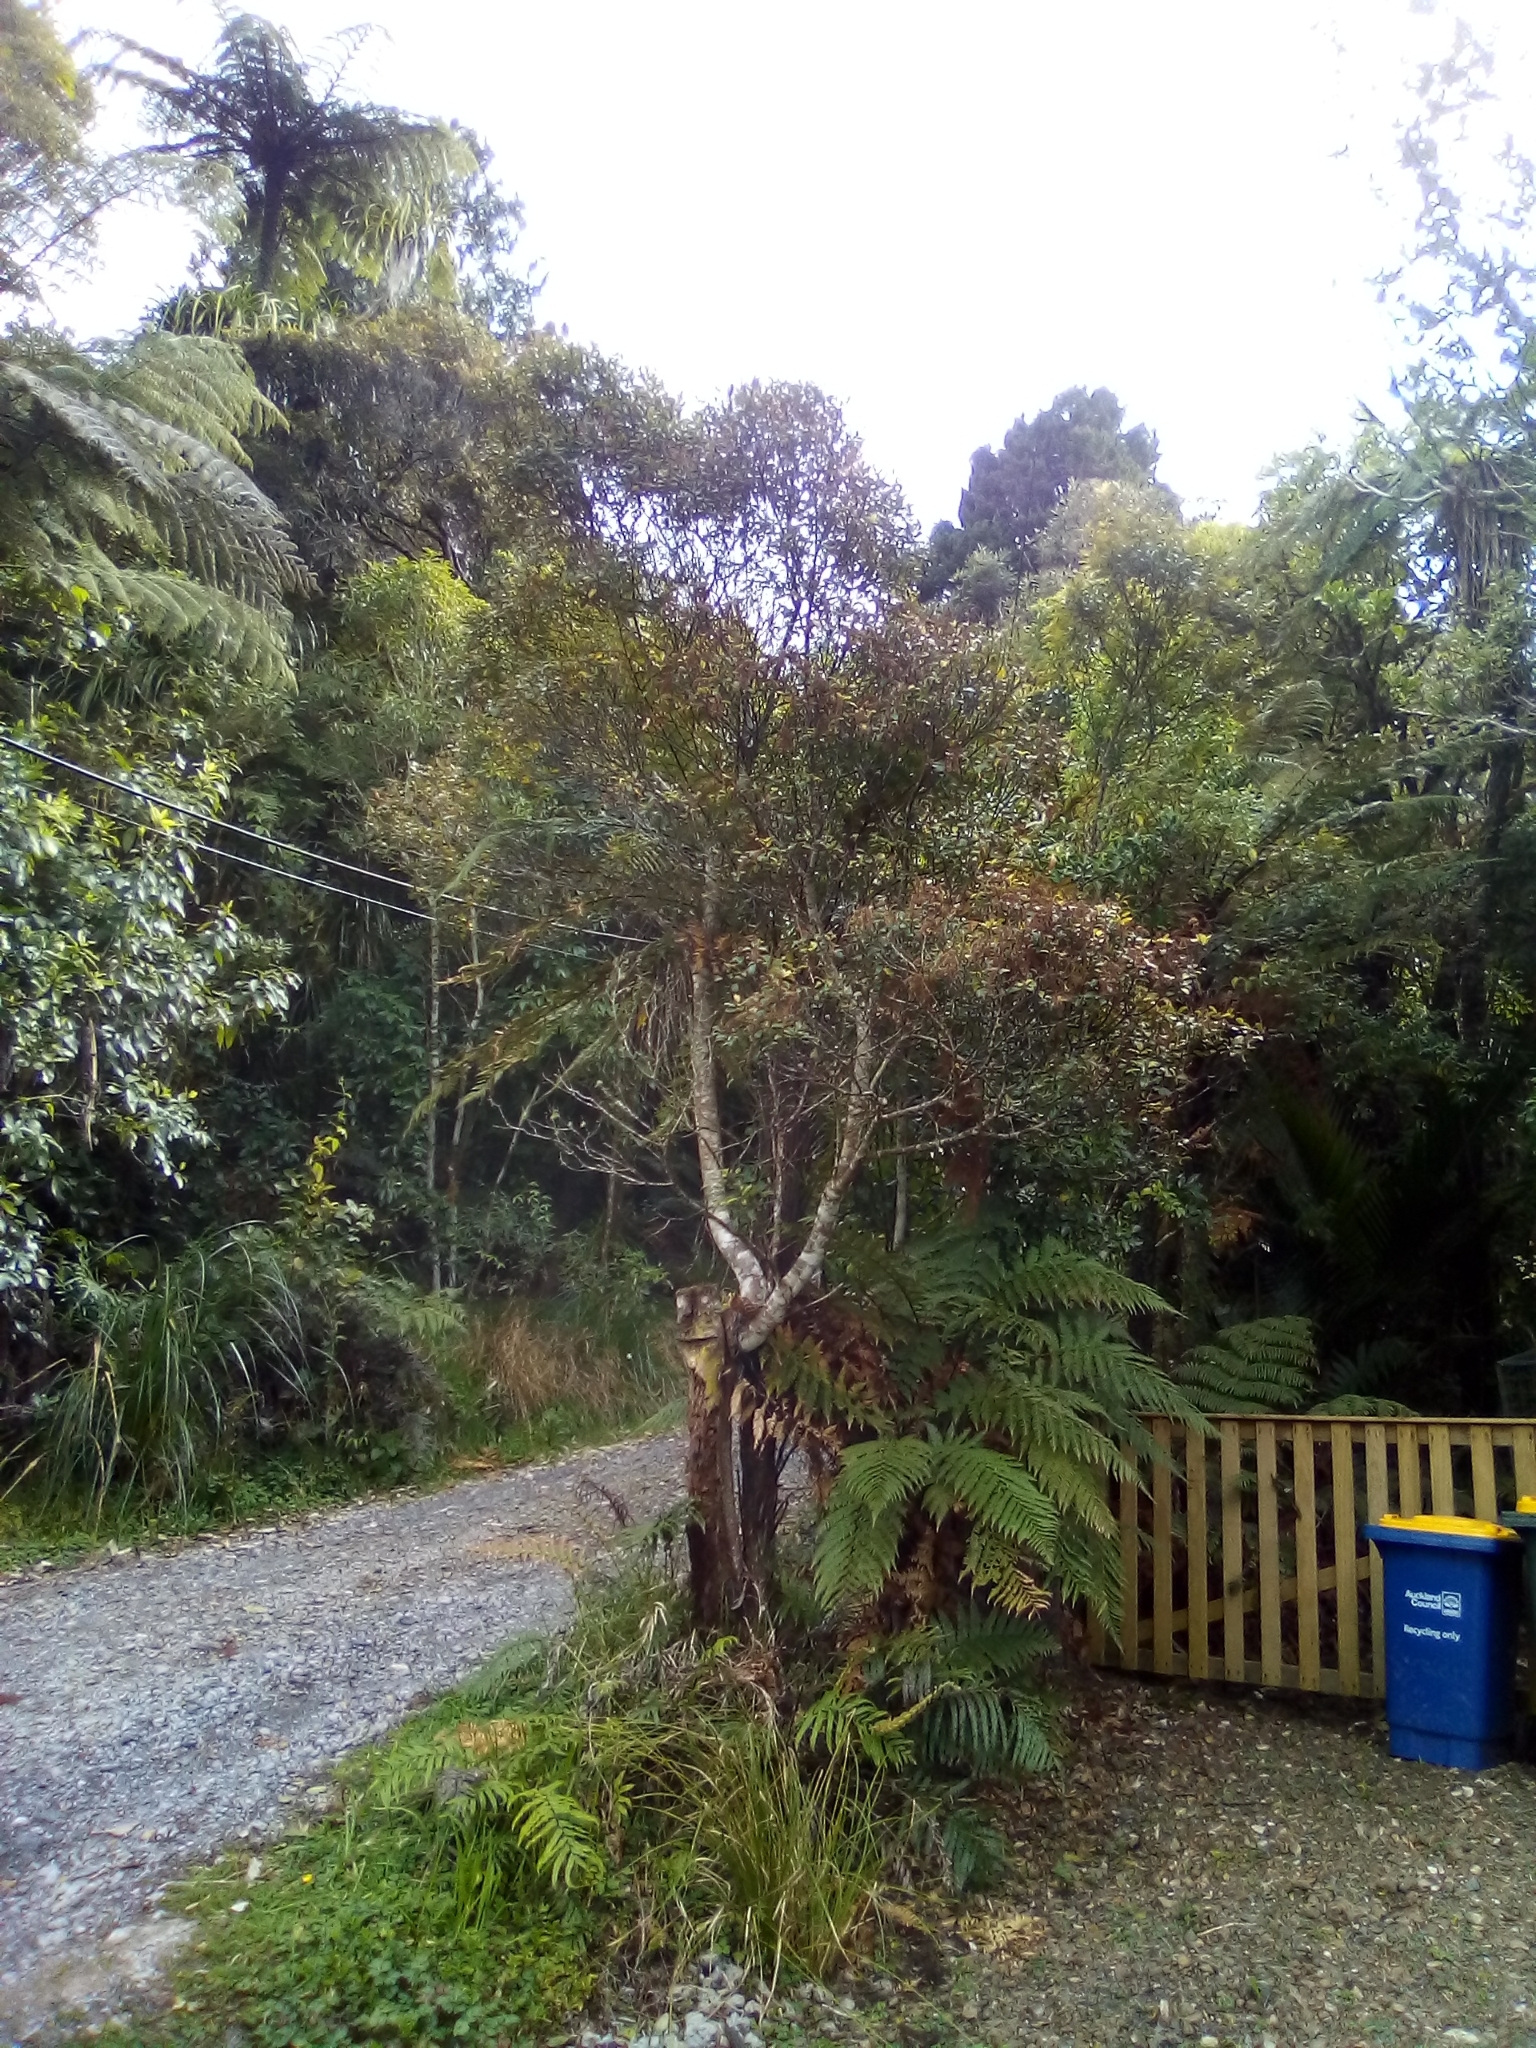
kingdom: Plantae
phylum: Tracheophyta
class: Magnoliopsida
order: Oxalidales
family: Cunoniaceae
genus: Pterophylla
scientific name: Pterophylla sylvicola
